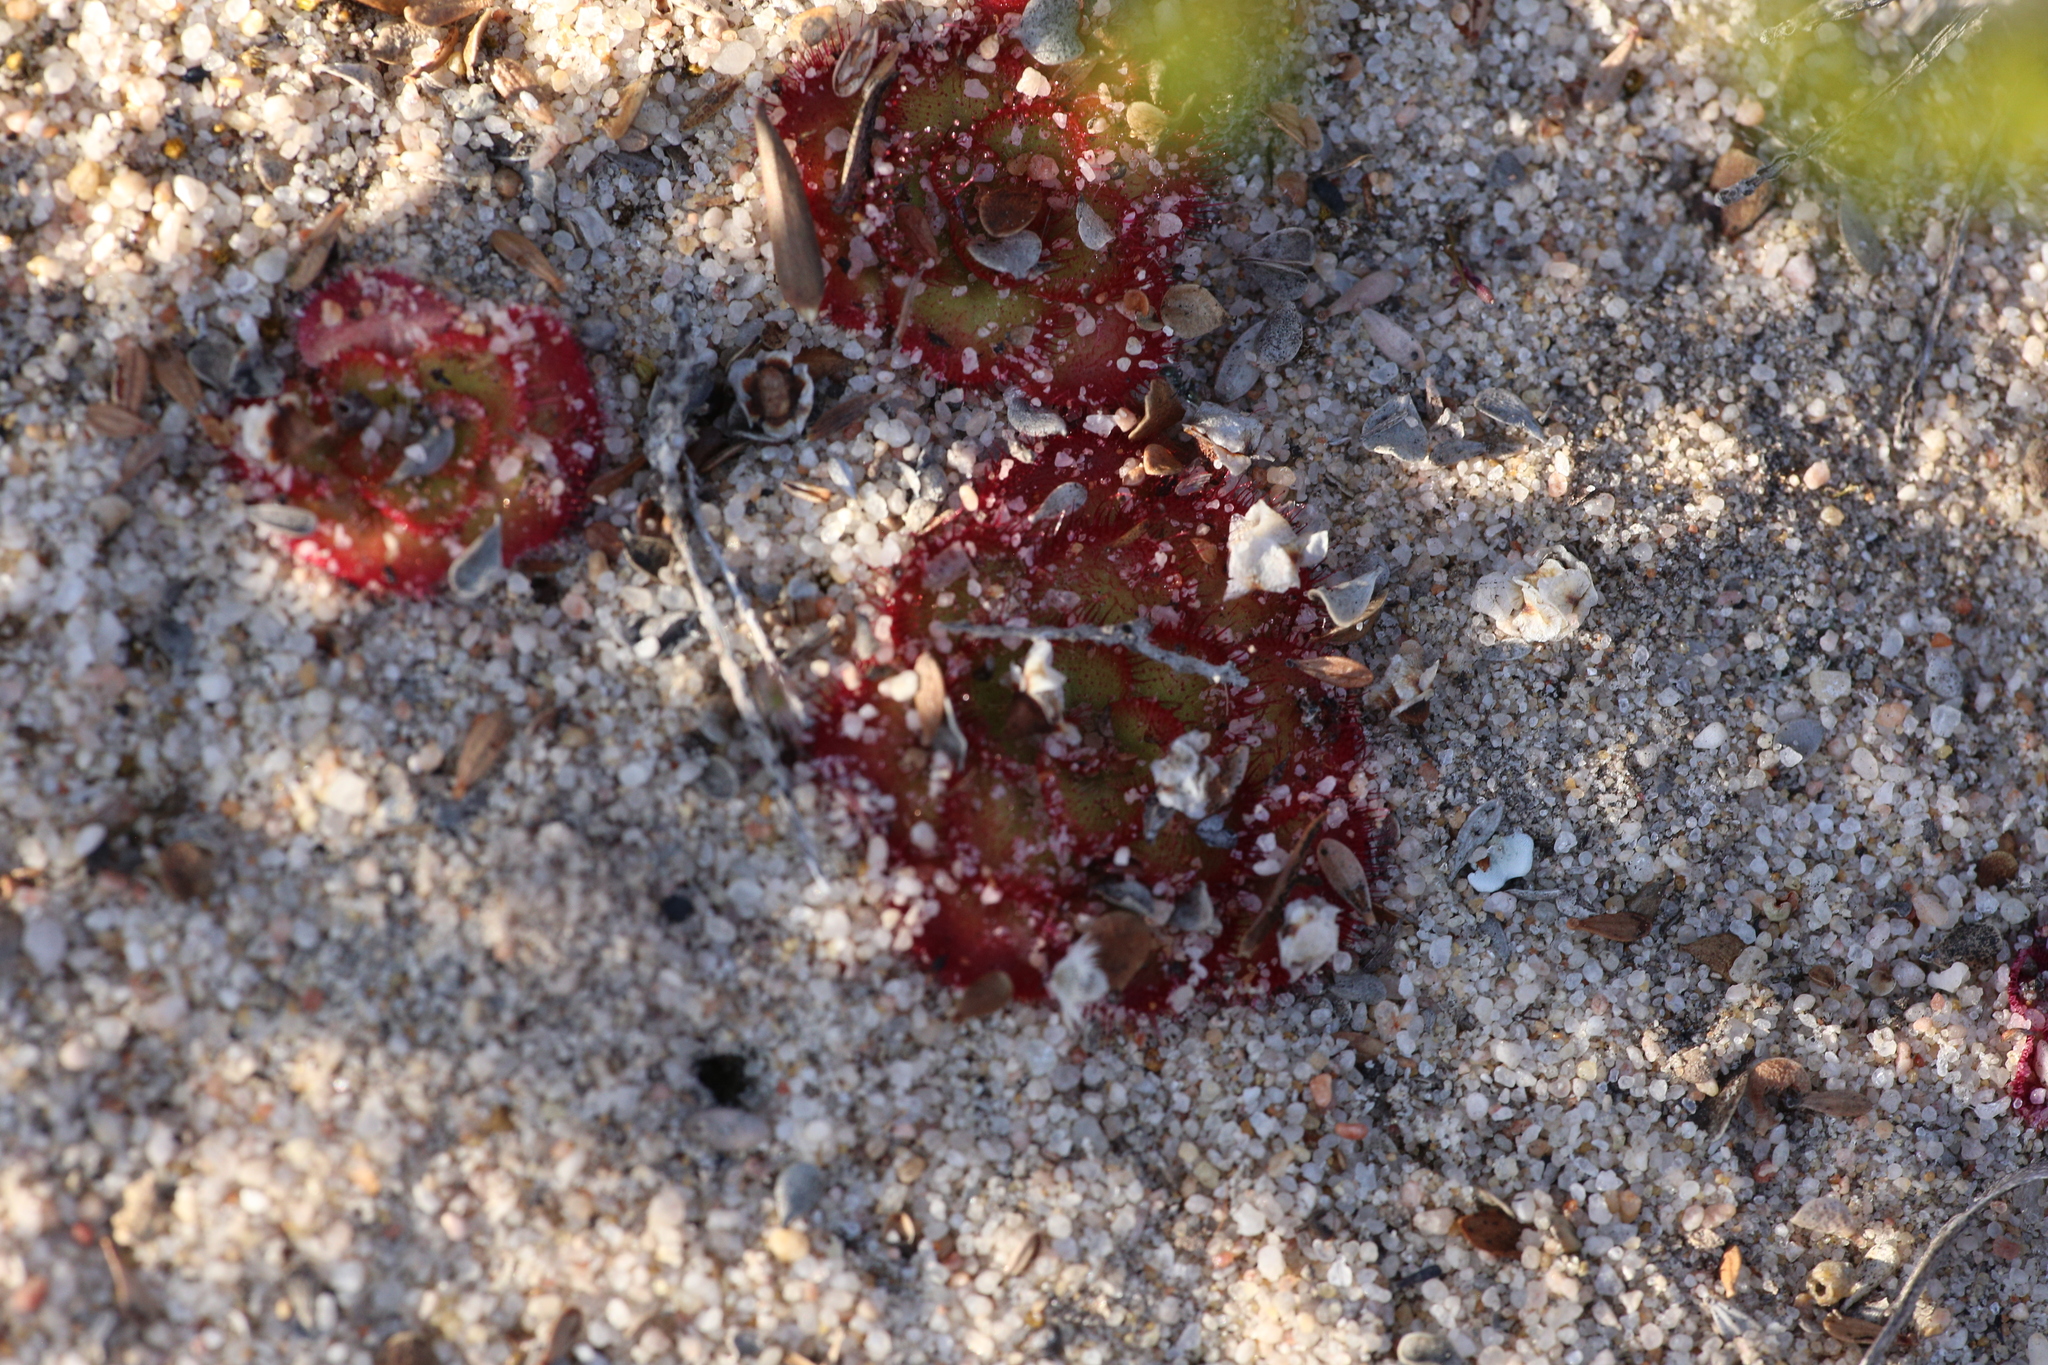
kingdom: Plantae
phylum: Tracheophyta
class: Magnoliopsida
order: Caryophyllales
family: Droseraceae
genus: Drosera
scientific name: Drosera zonaria
